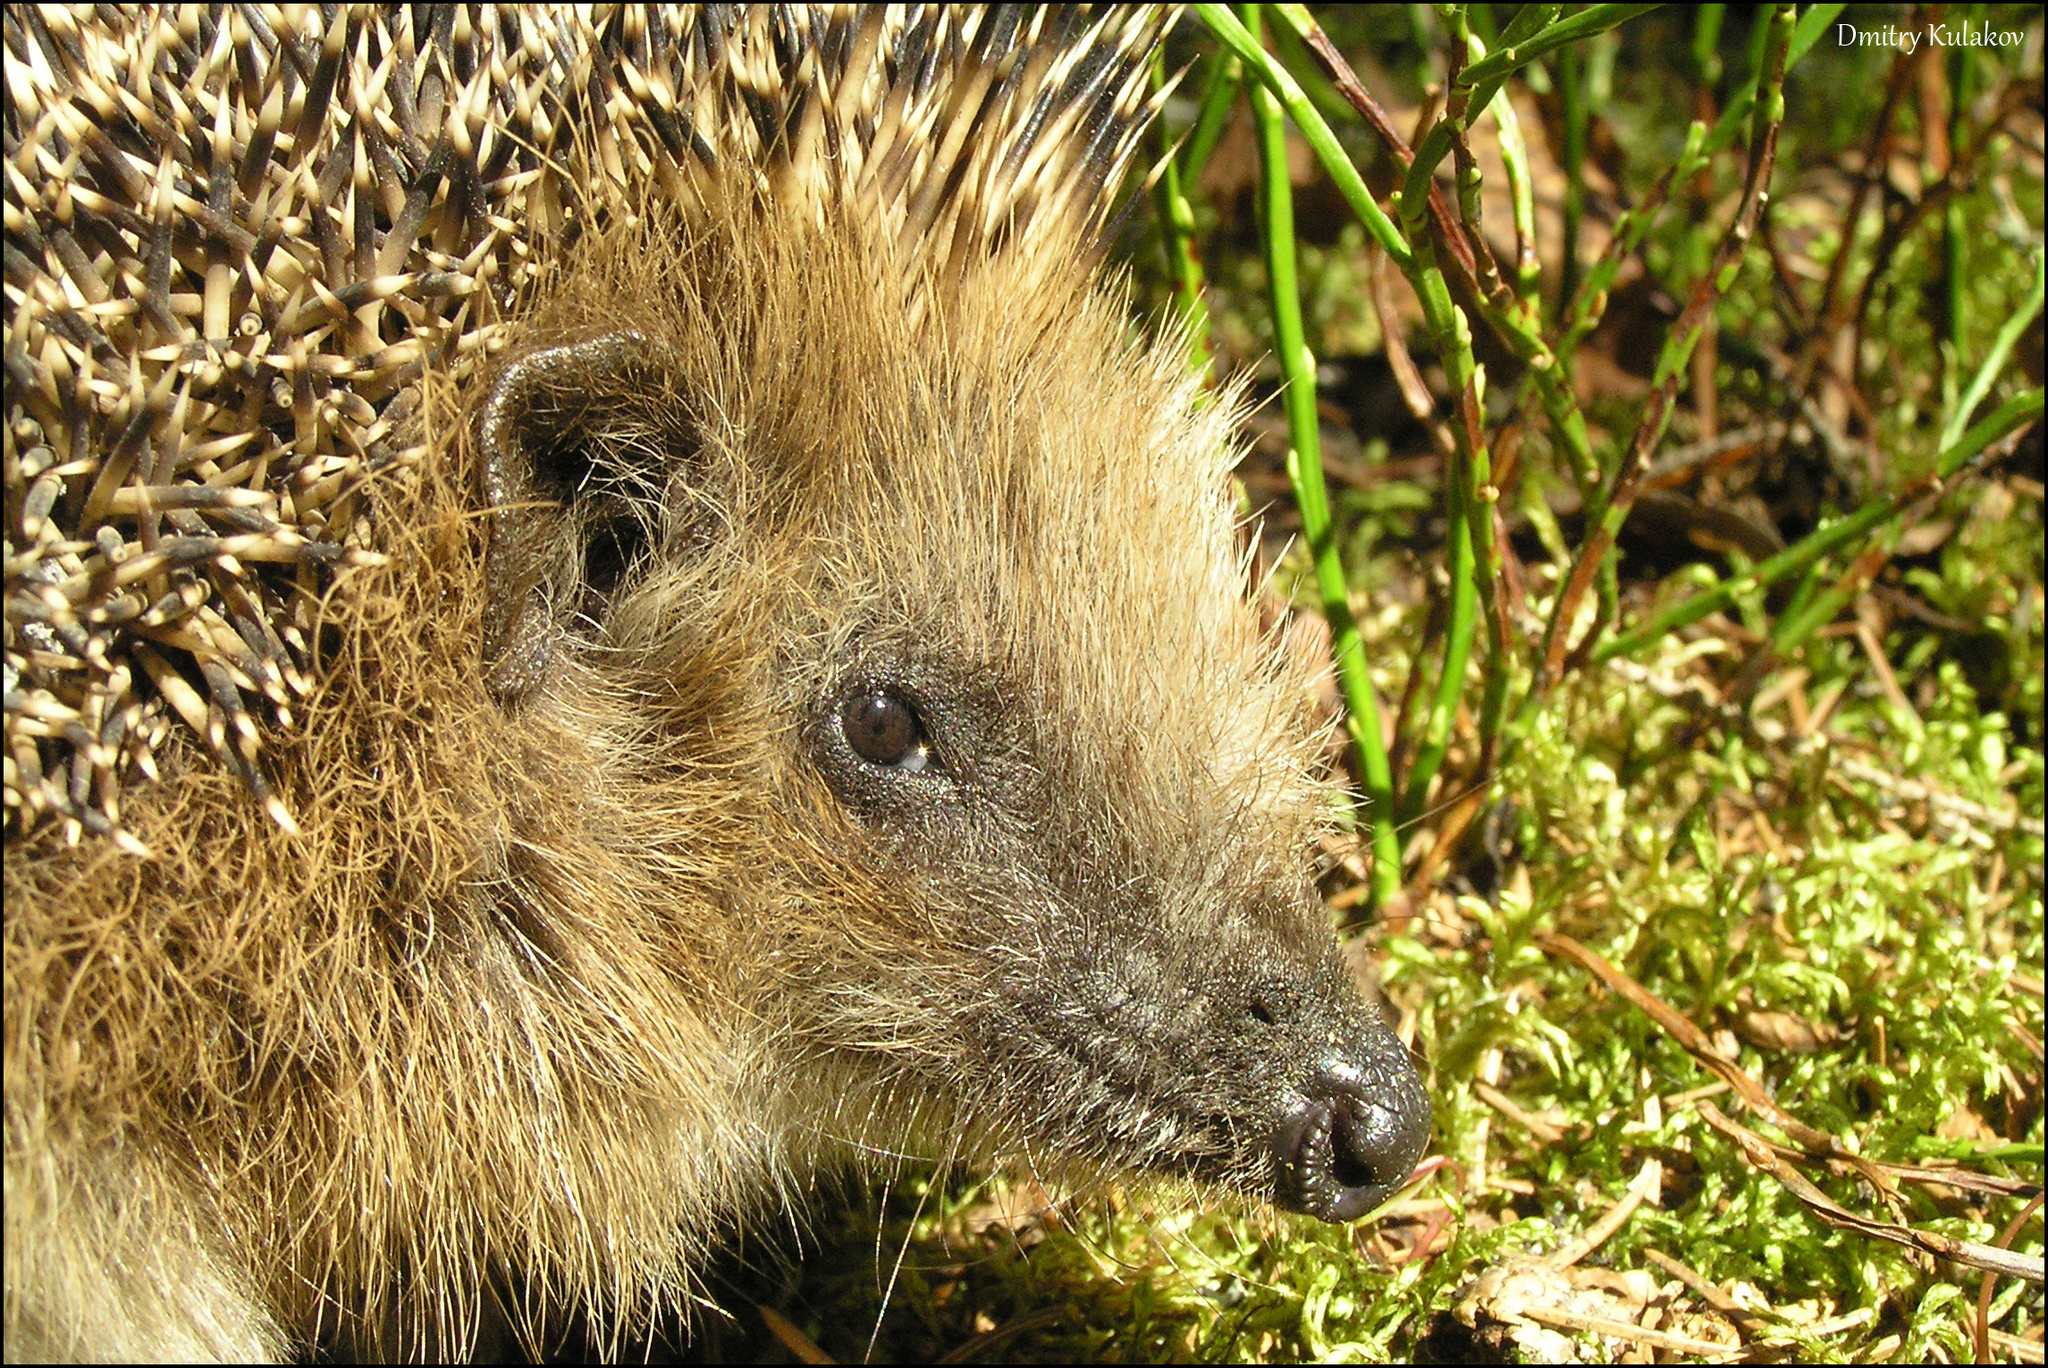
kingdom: Animalia
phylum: Chordata
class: Mammalia
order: Erinaceomorpha
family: Erinaceidae
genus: Erinaceus
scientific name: Erinaceus europaeus
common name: West european hedgehog
